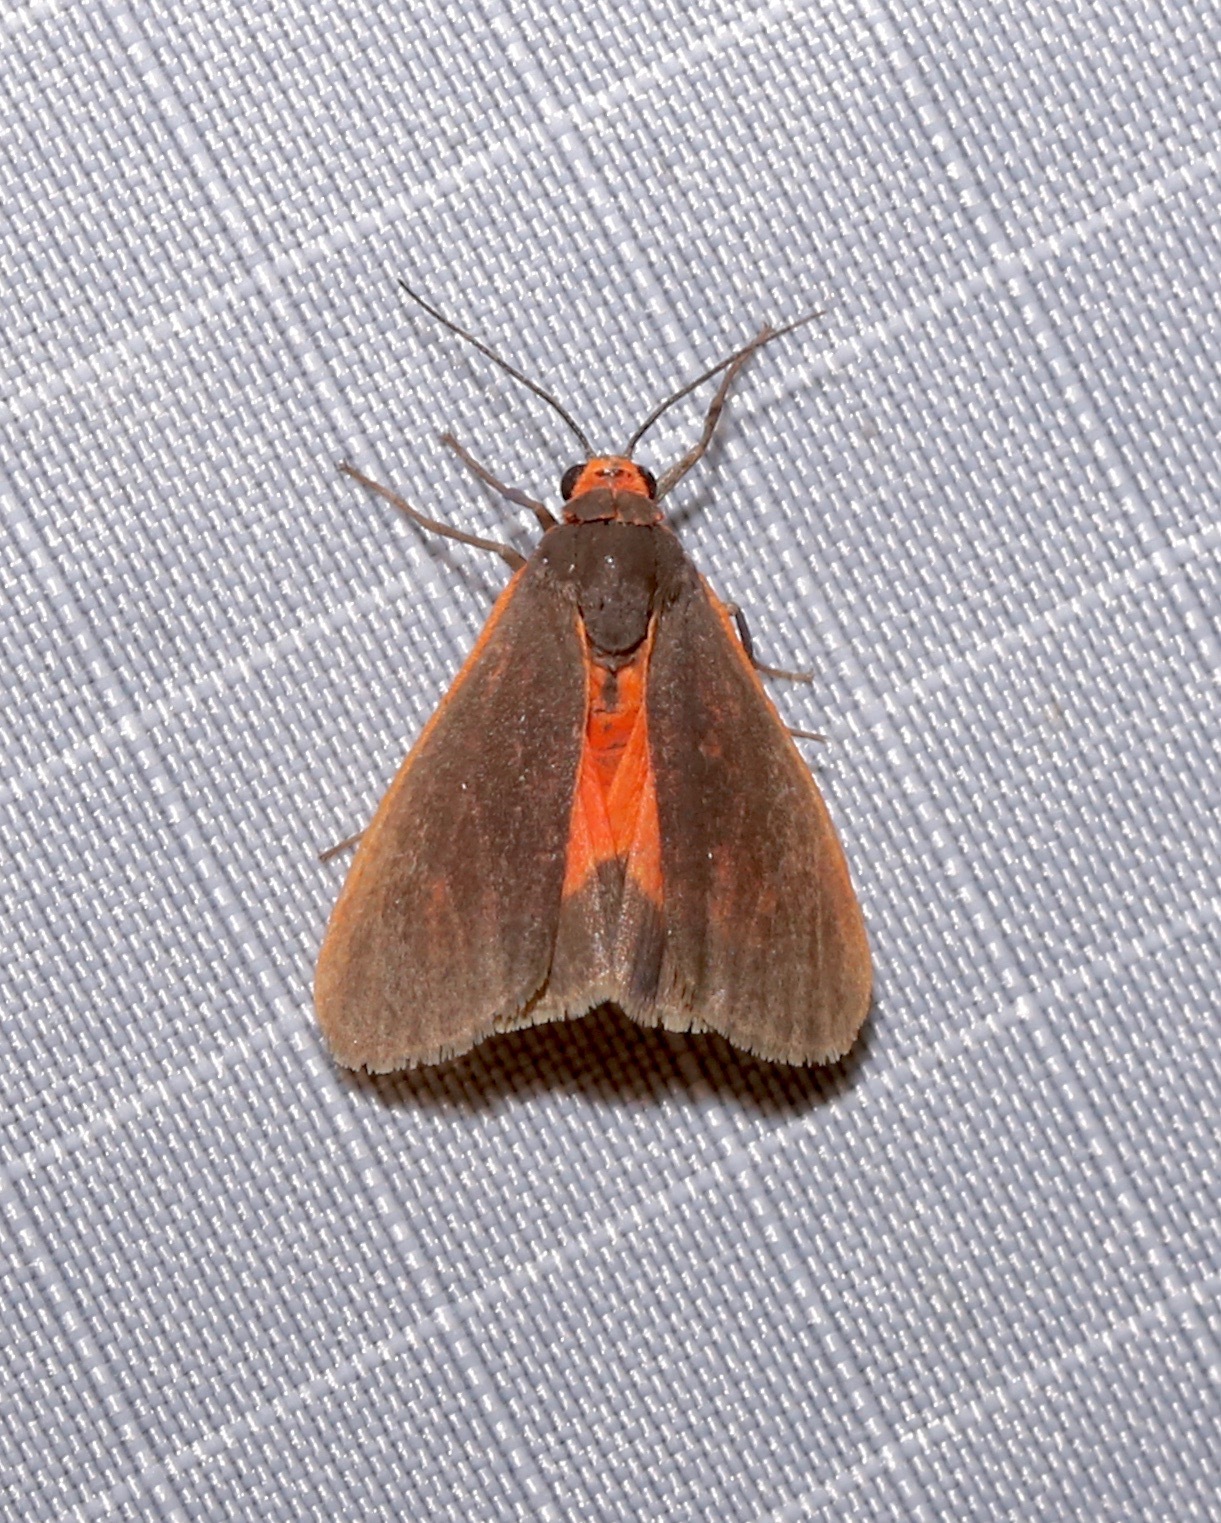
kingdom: Animalia
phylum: Arthropoda
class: Insecta
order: Lepidoptera
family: Erebidae
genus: Virbia
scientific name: Virbia laeta
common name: Joyful holomelina moth
